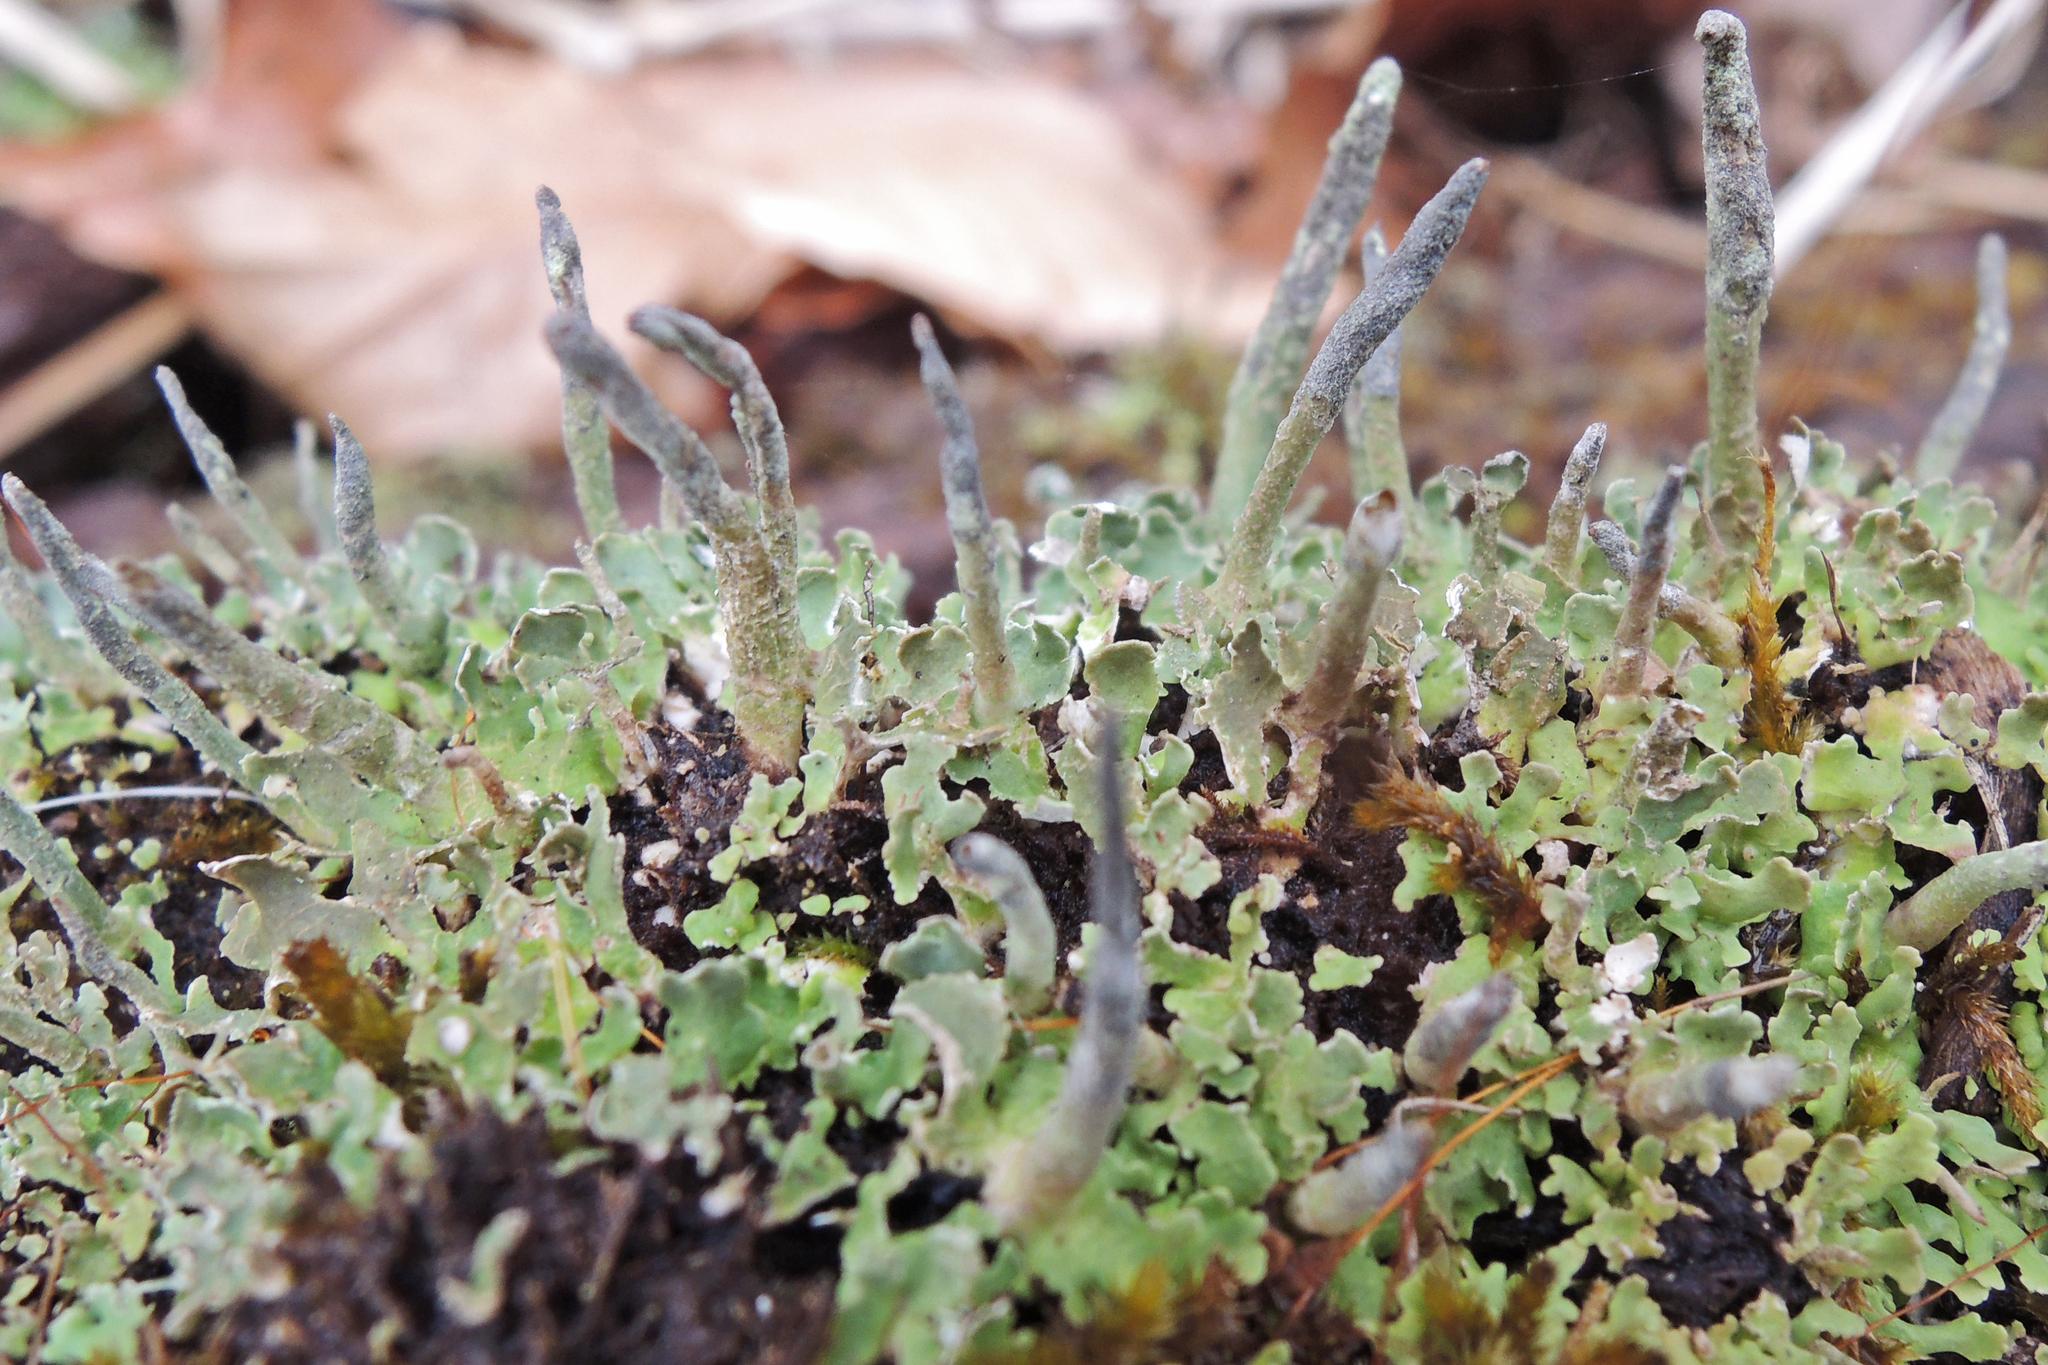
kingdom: Fungi
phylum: Ascomycota
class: Lecanoromycetes
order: Lecanorales
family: Cladoniaceae
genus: Cladonia
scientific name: Cladonia ochrochlora
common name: Smooth-footed powderhorn
